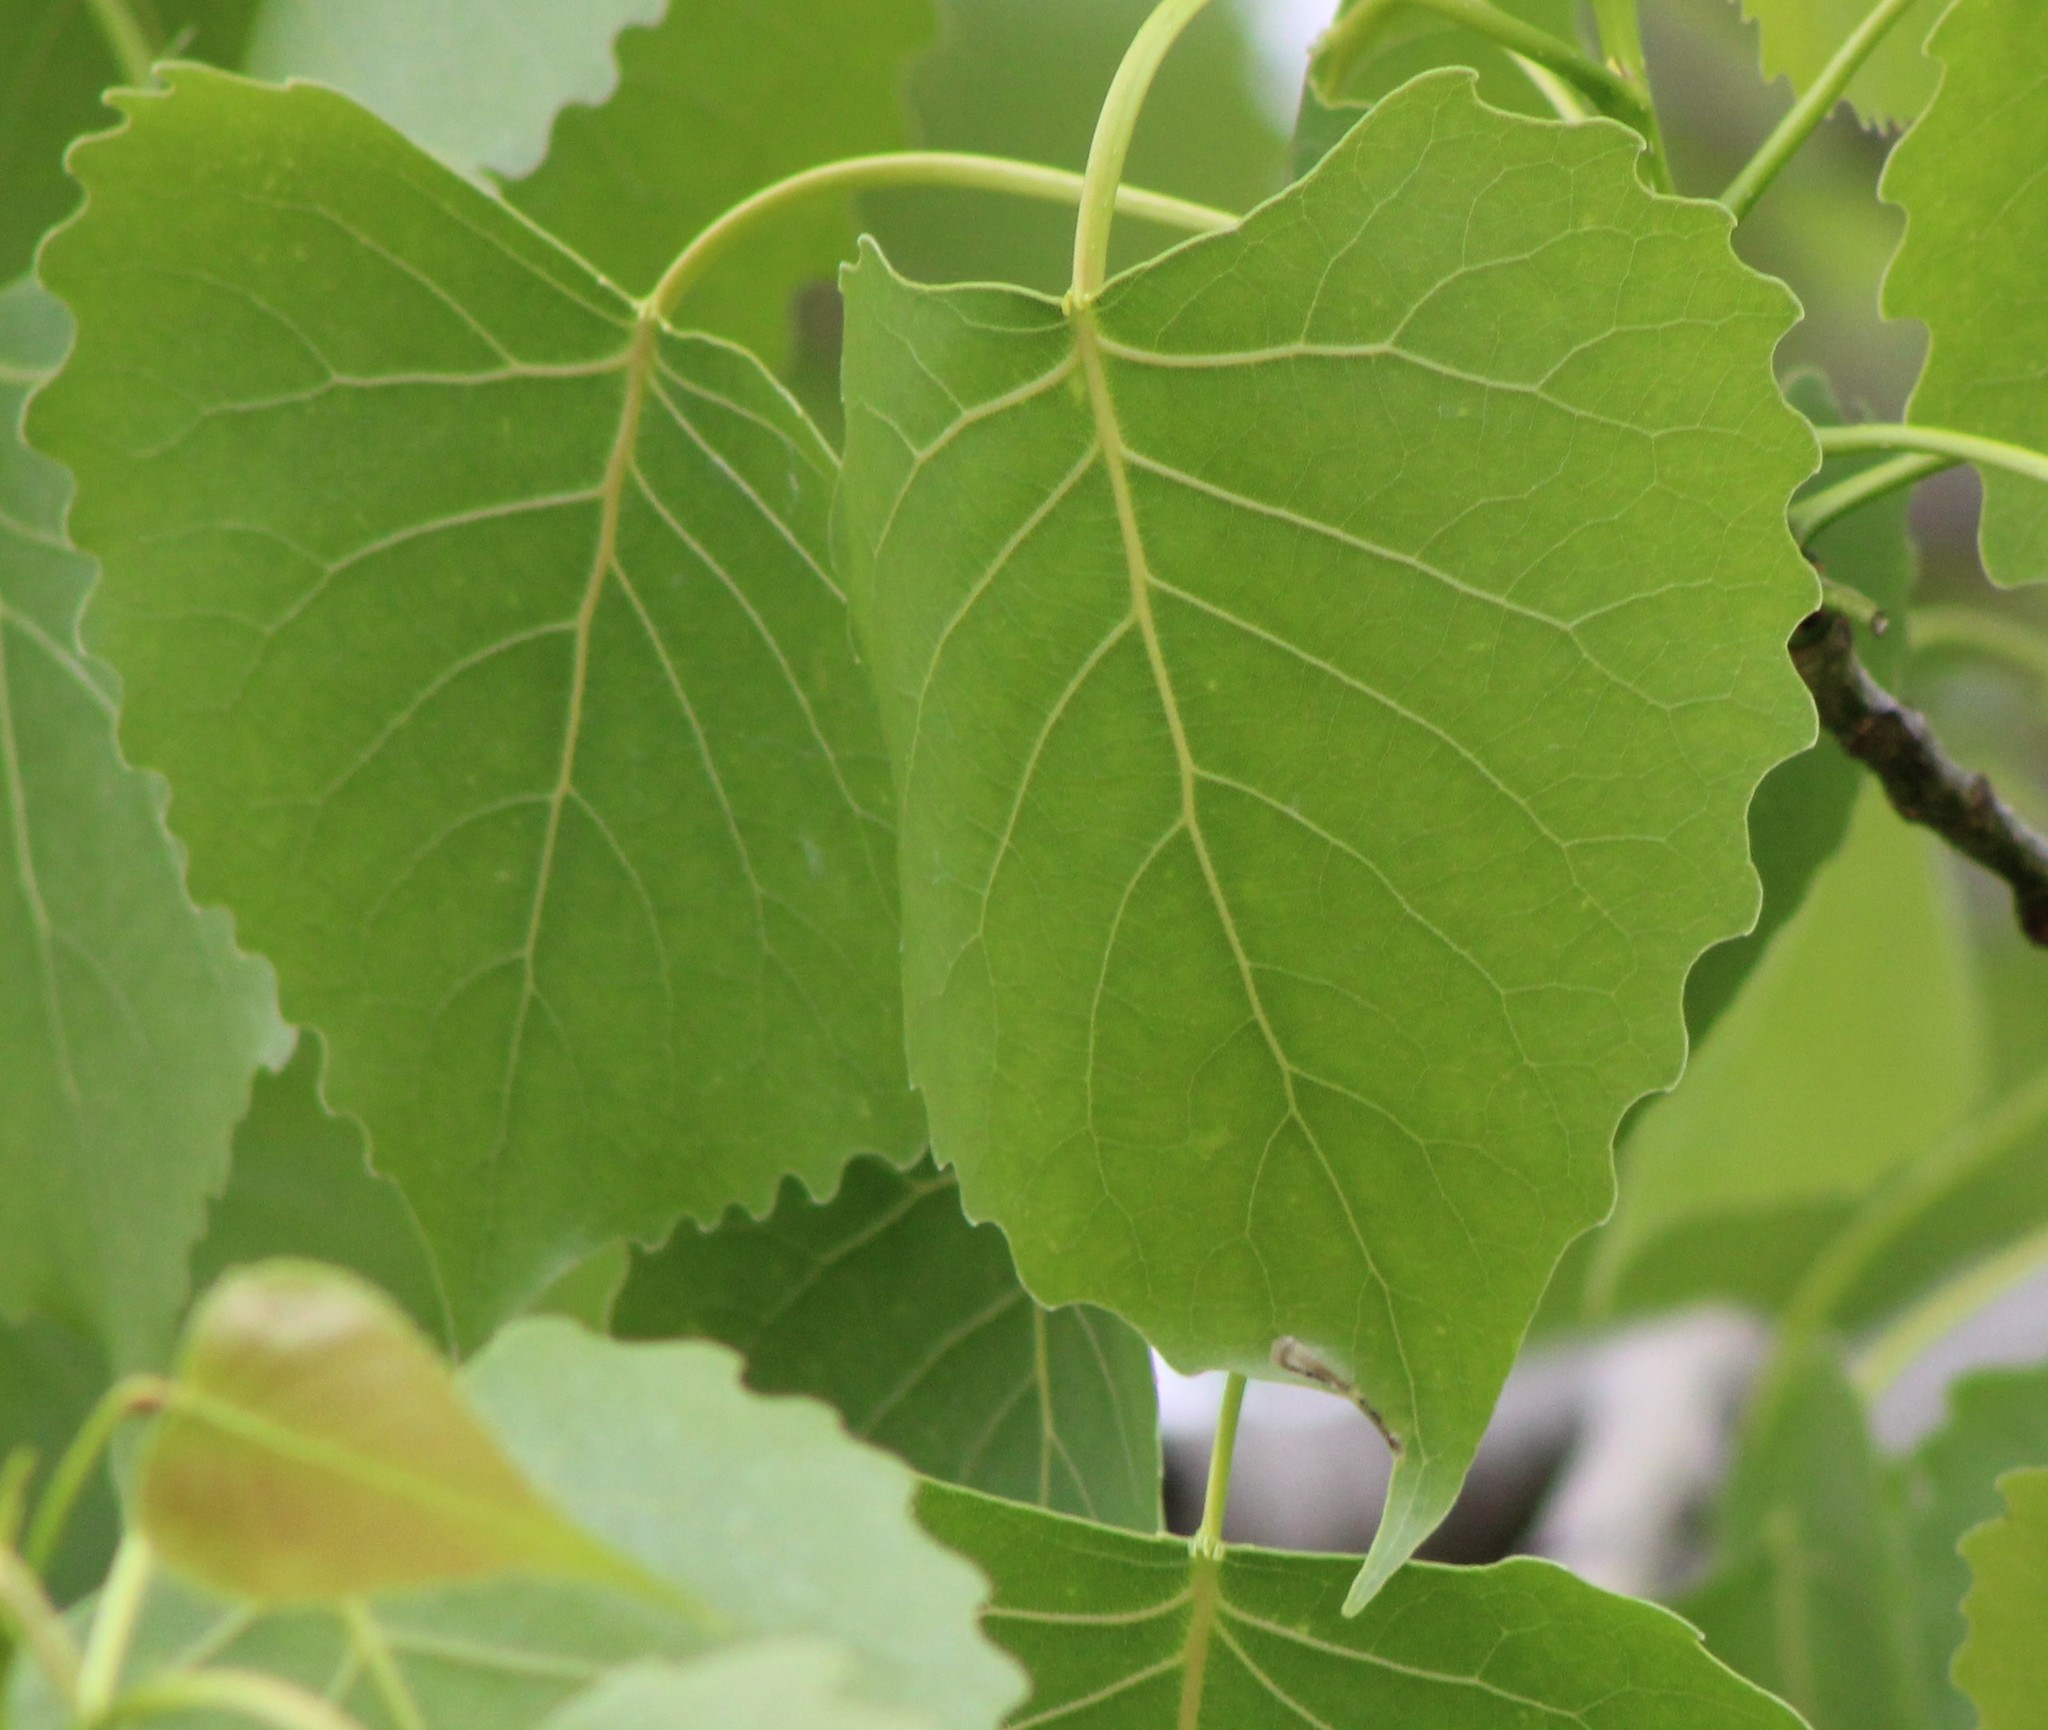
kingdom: Plantae
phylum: Tracheophyta
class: Magnoliopsida
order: Malpighiales
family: Salicaceae
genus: Populus
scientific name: Populus deltoides
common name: Eastern cottonwood
